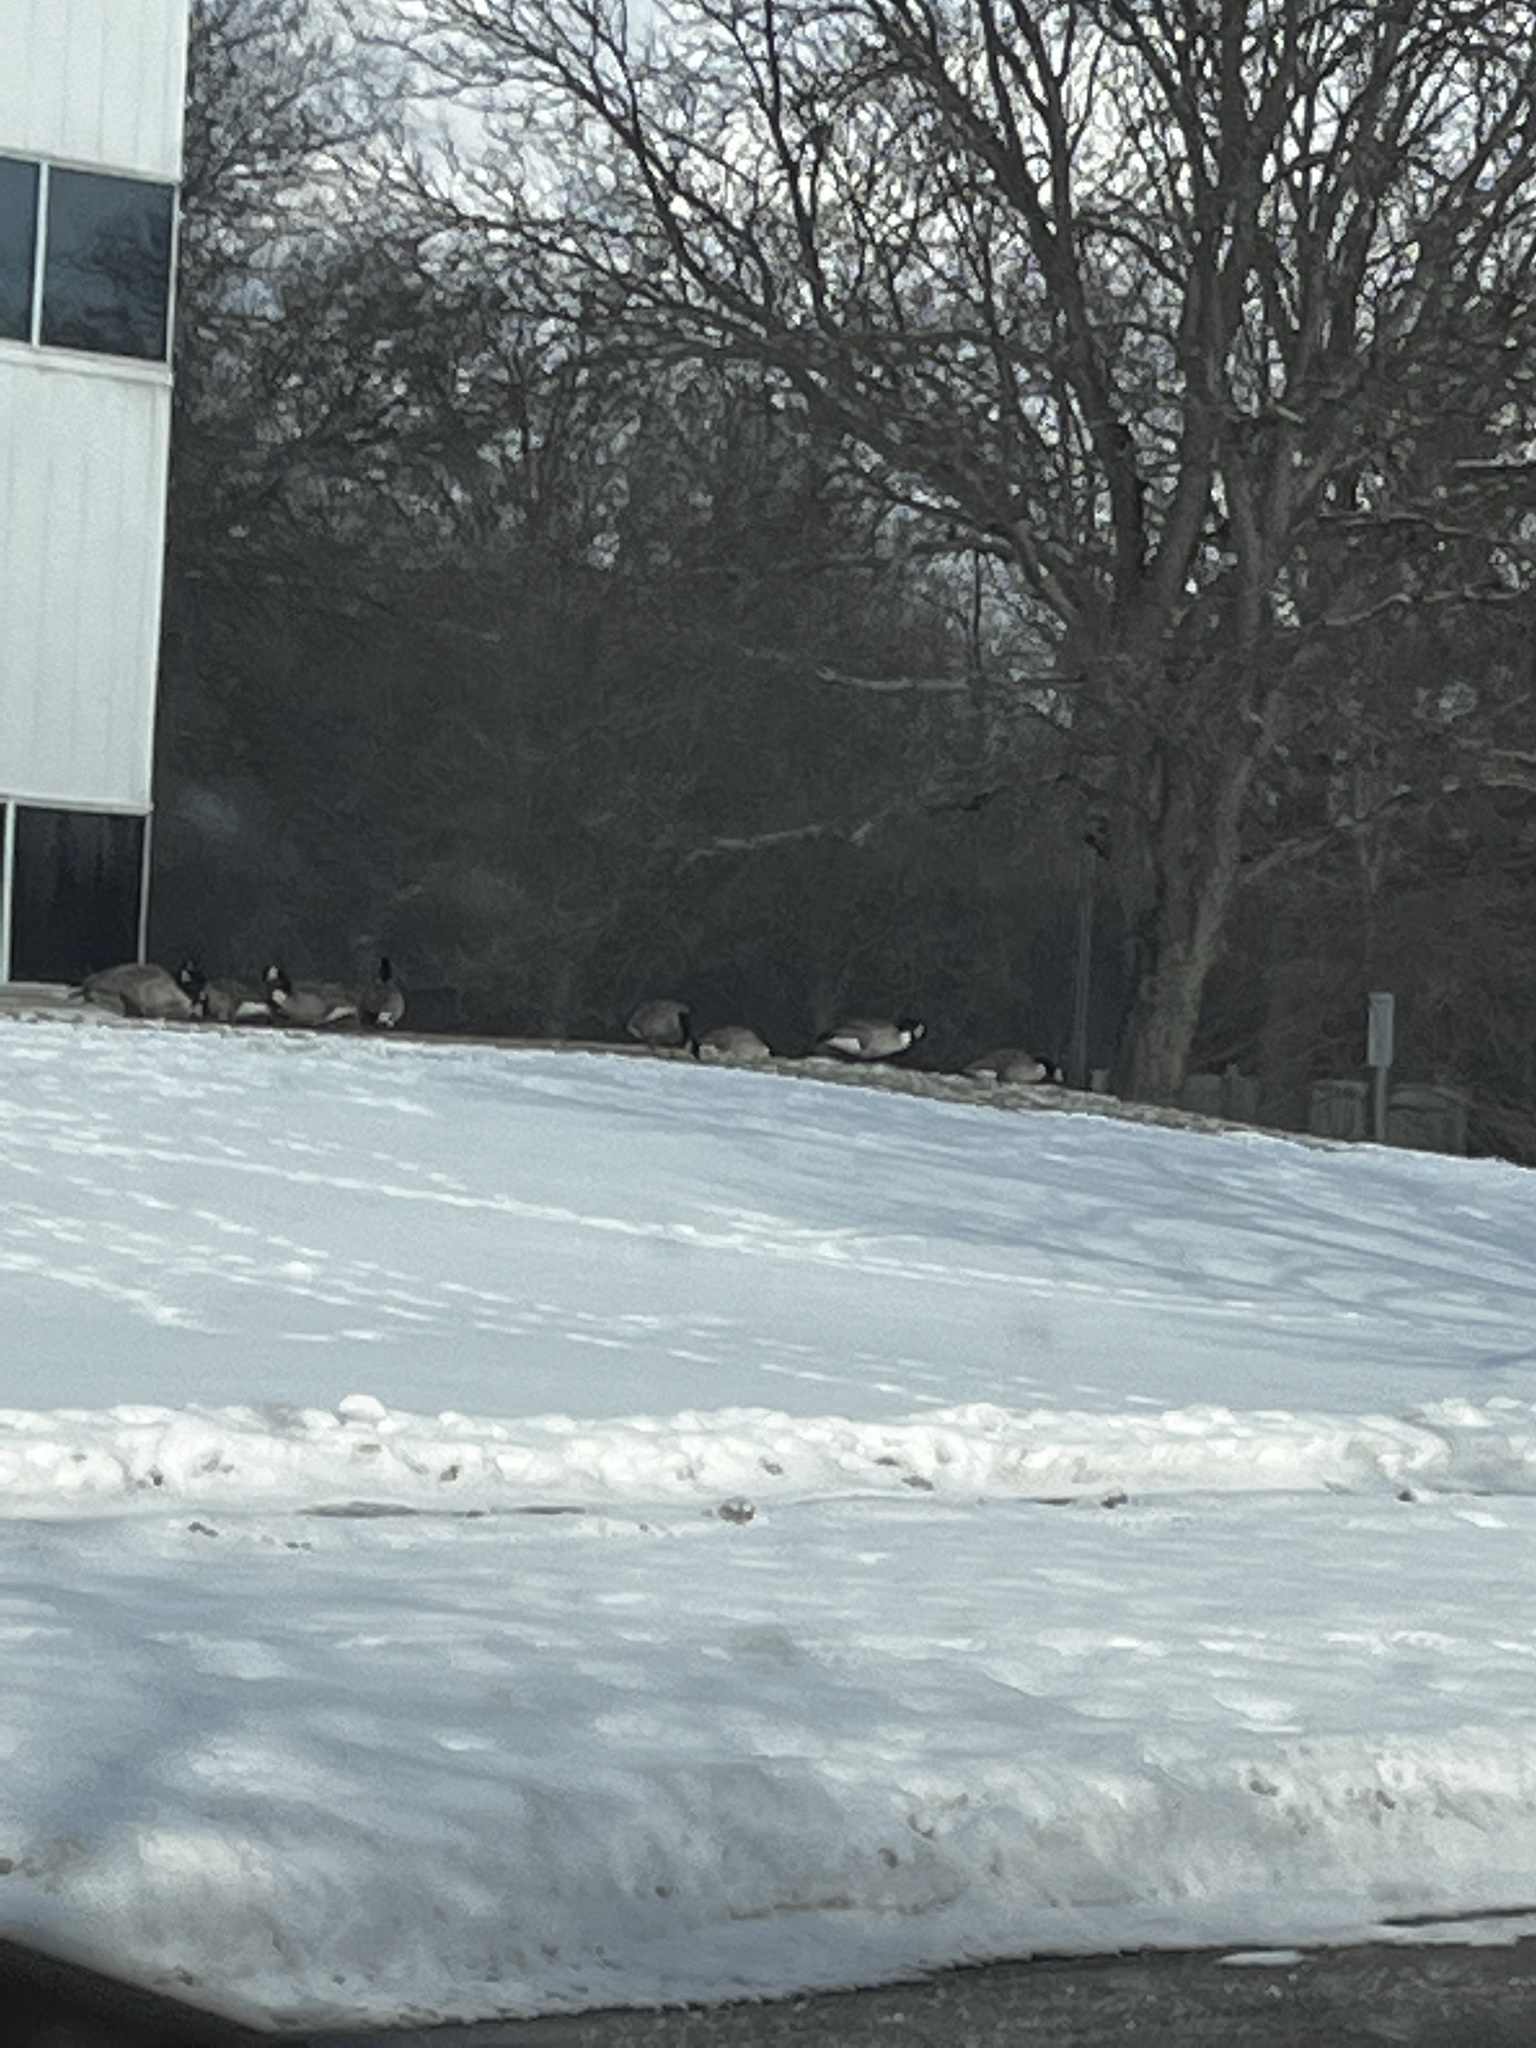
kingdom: Animalia
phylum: Chordata
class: Aves
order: Anseriformes
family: Anatidae
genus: Branta
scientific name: Branta canadensis
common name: Canada goose
